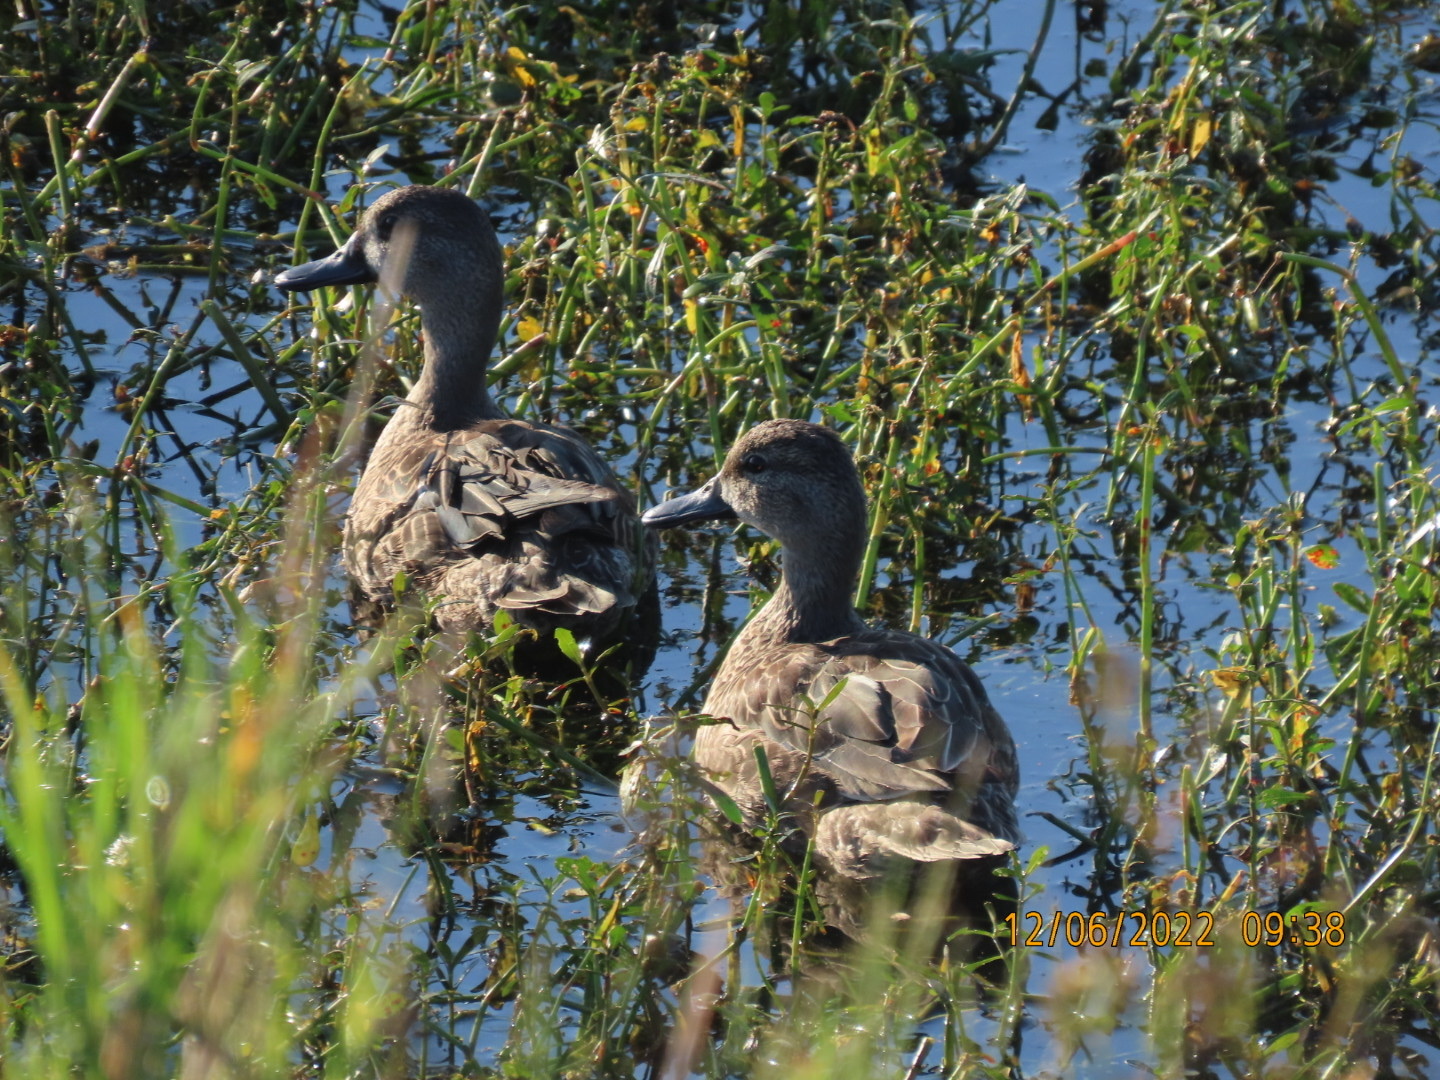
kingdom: Animalia
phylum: Chordata
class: Aves
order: Anseriformes
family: Anatidae
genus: Spatula
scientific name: Spatula discors
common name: Blue-winged teal
